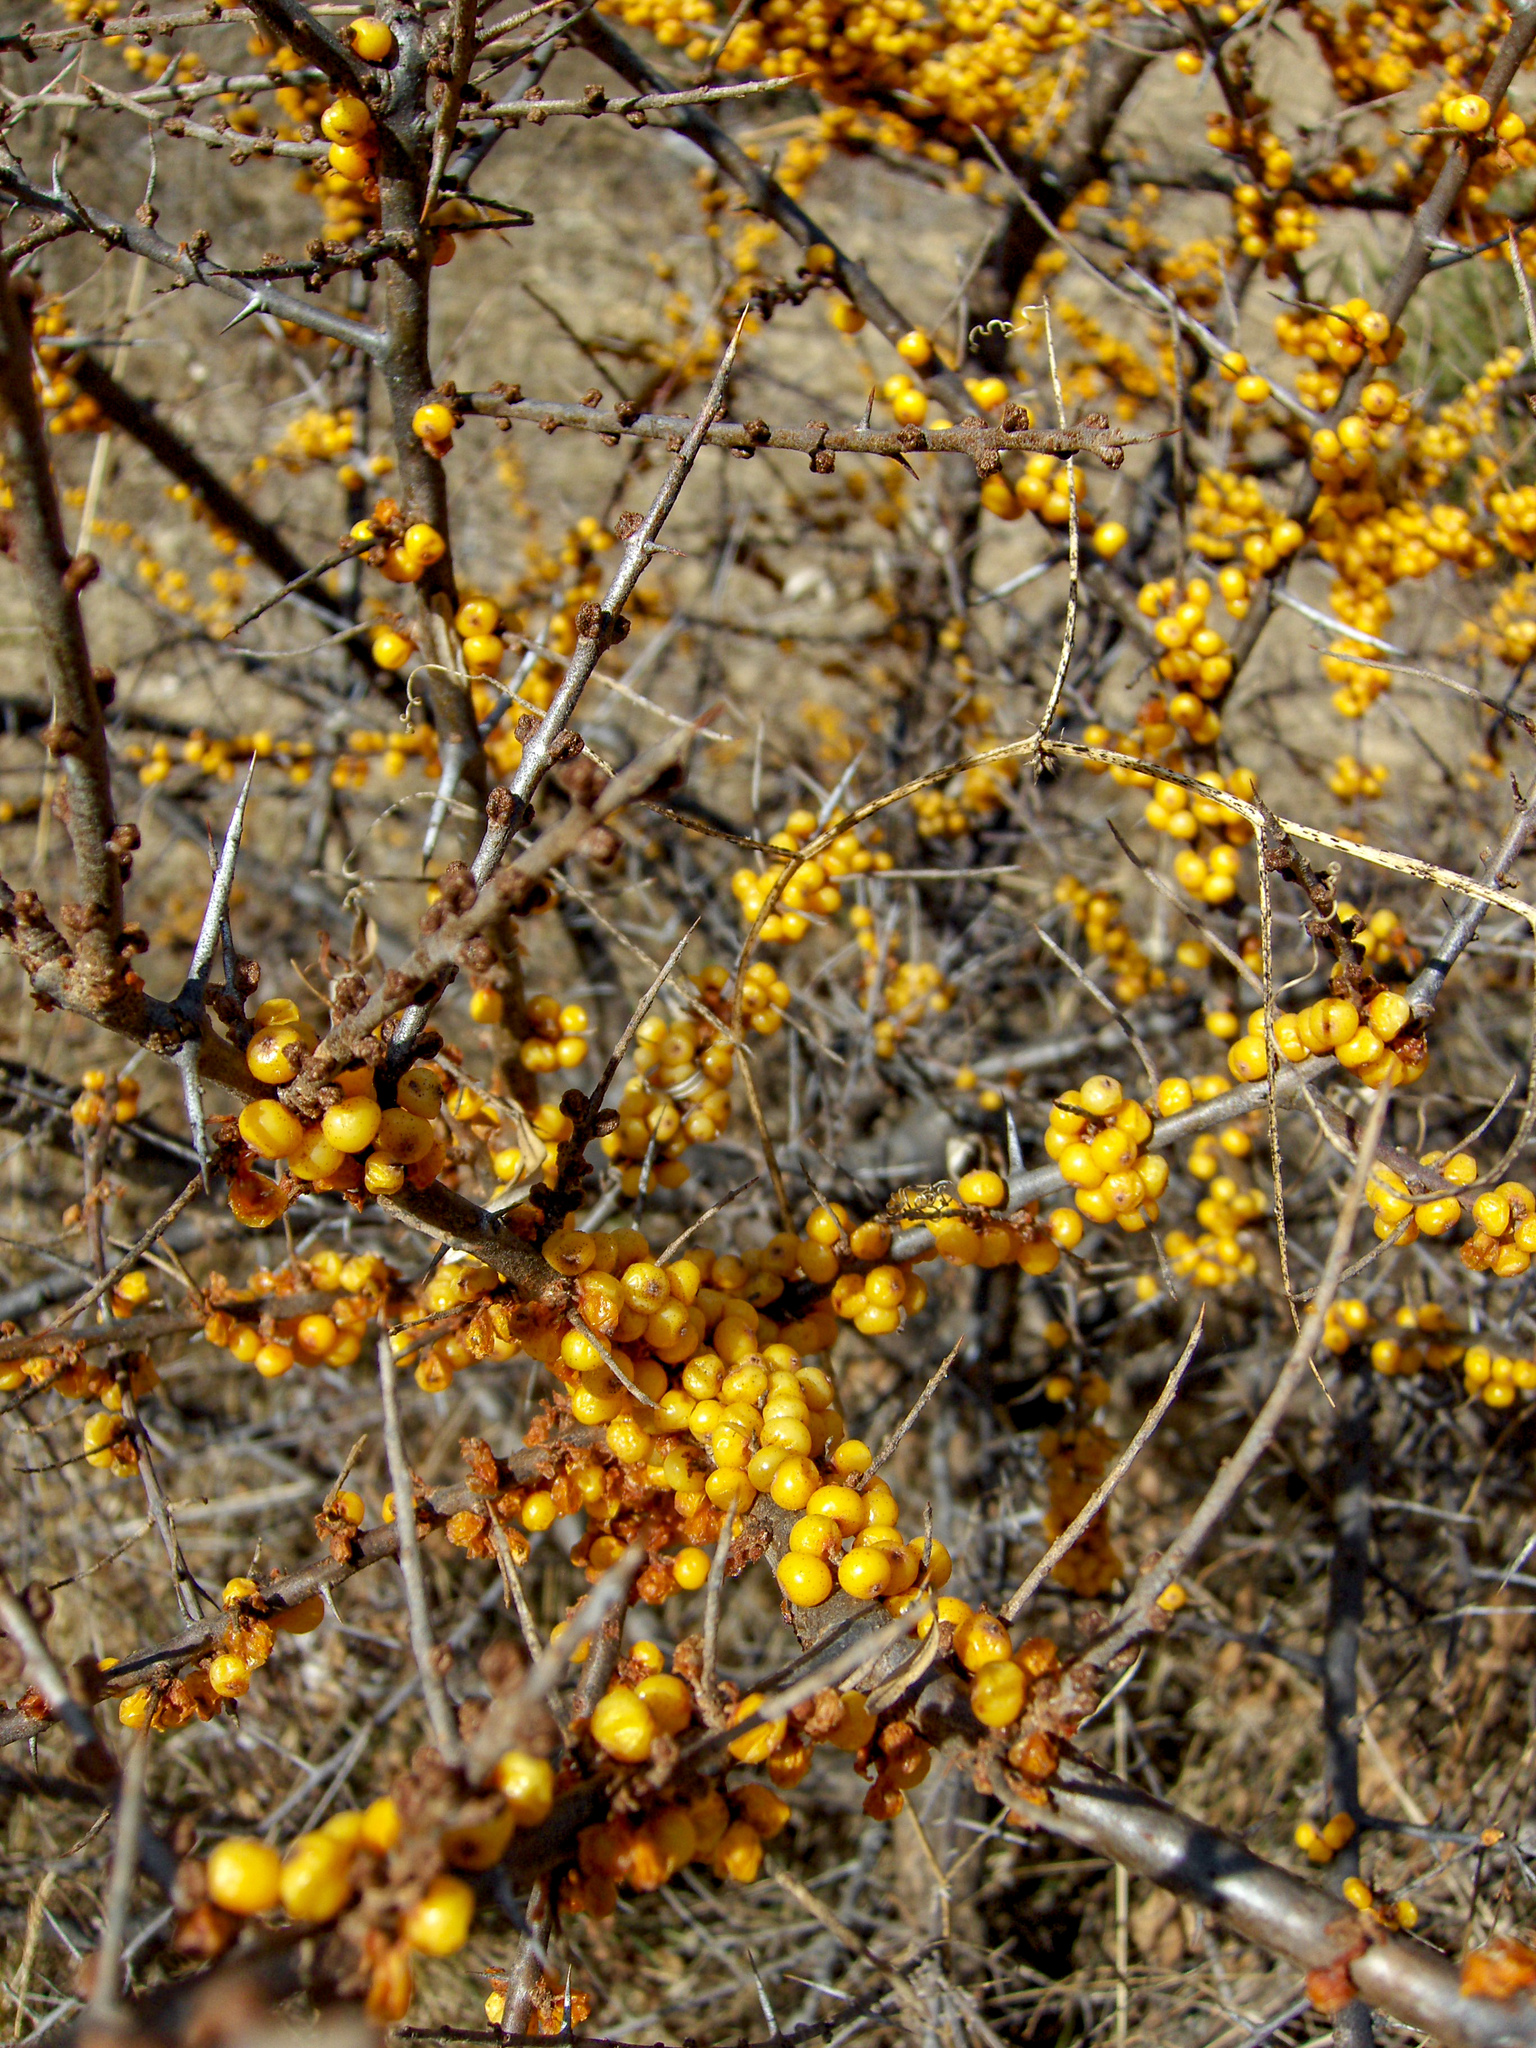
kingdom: Plantae
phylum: Tracheophyta
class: Magnoliopsida
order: Rosales
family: Elaeagnaceae
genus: Hippophae
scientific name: Hippophae rhamnoides
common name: Sea-buckthorn
